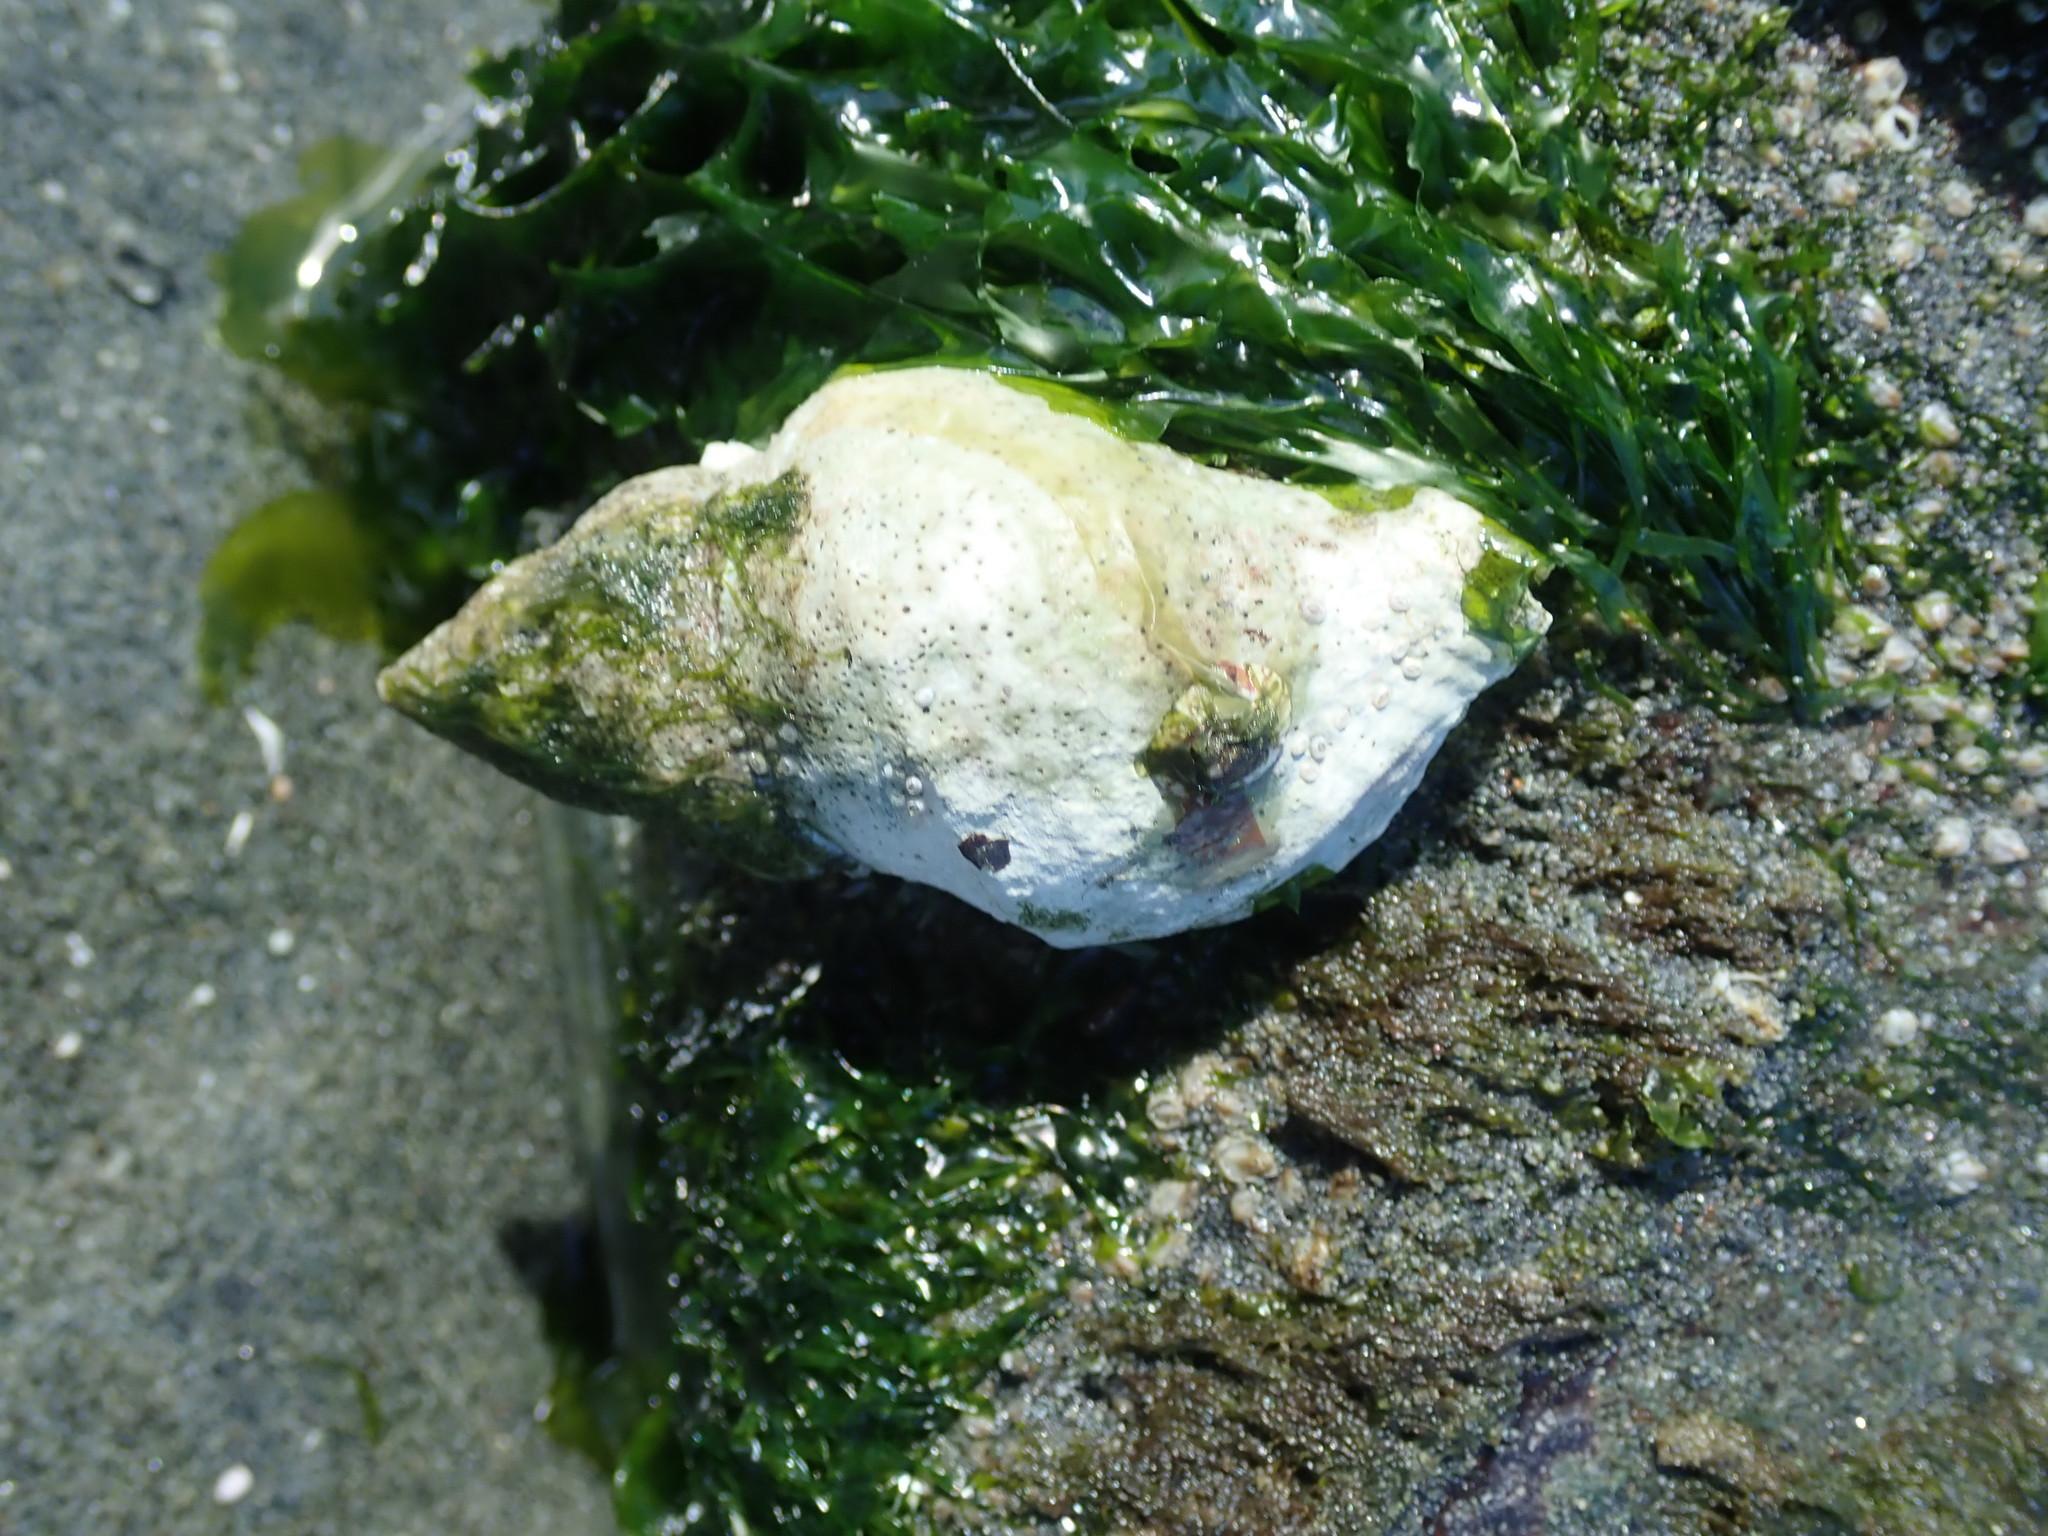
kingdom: Animalia
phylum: Mollusca
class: Gastropoda
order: Neogastropoda
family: Muricidae
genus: Nucella
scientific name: Nucella lamellosa
